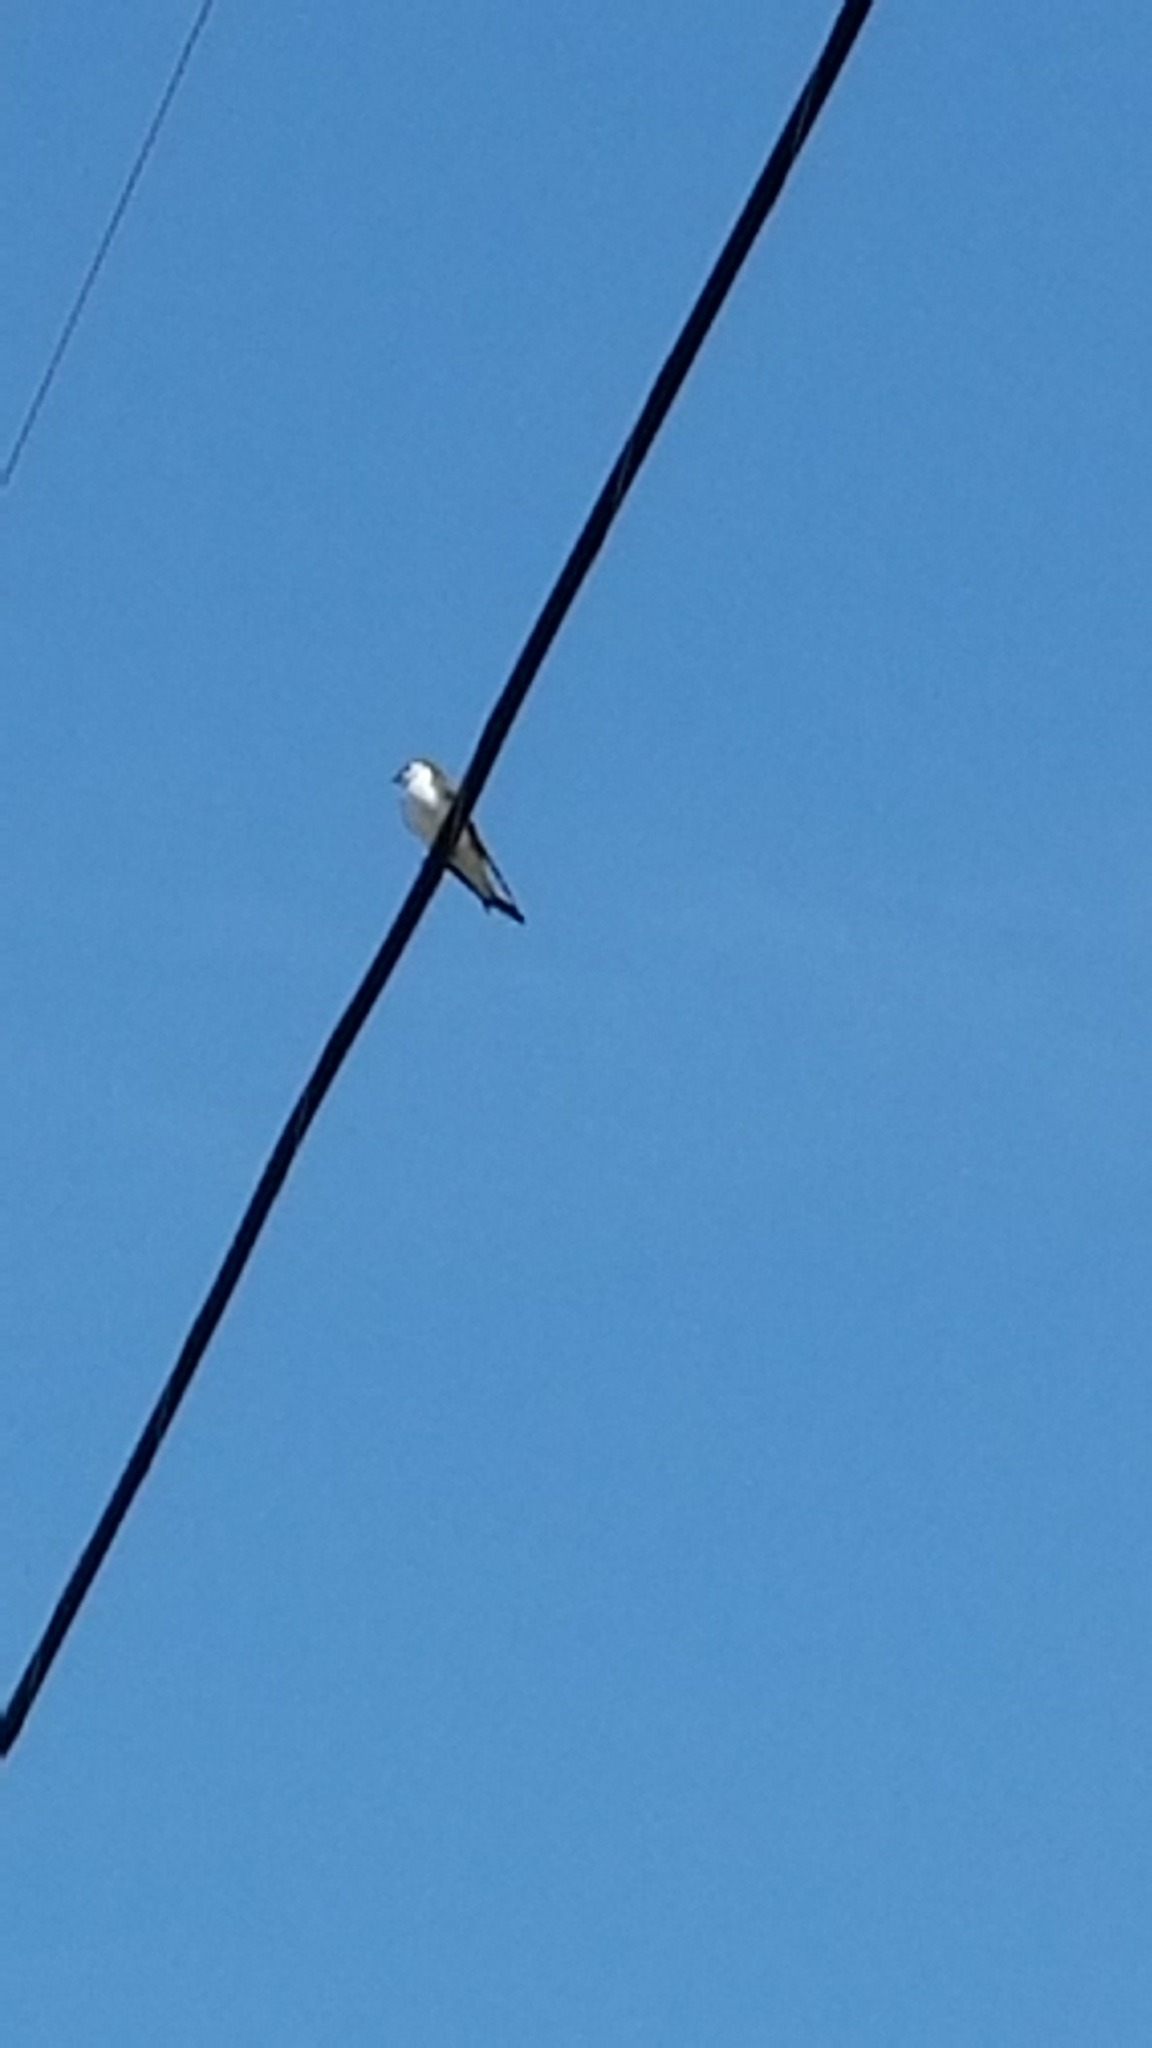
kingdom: Animalia
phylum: Chordata
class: Aves
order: Passeriformes
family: Hirundinidae
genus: Tachycineta
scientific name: Tachycineta thalassina
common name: Violet-green swallow
